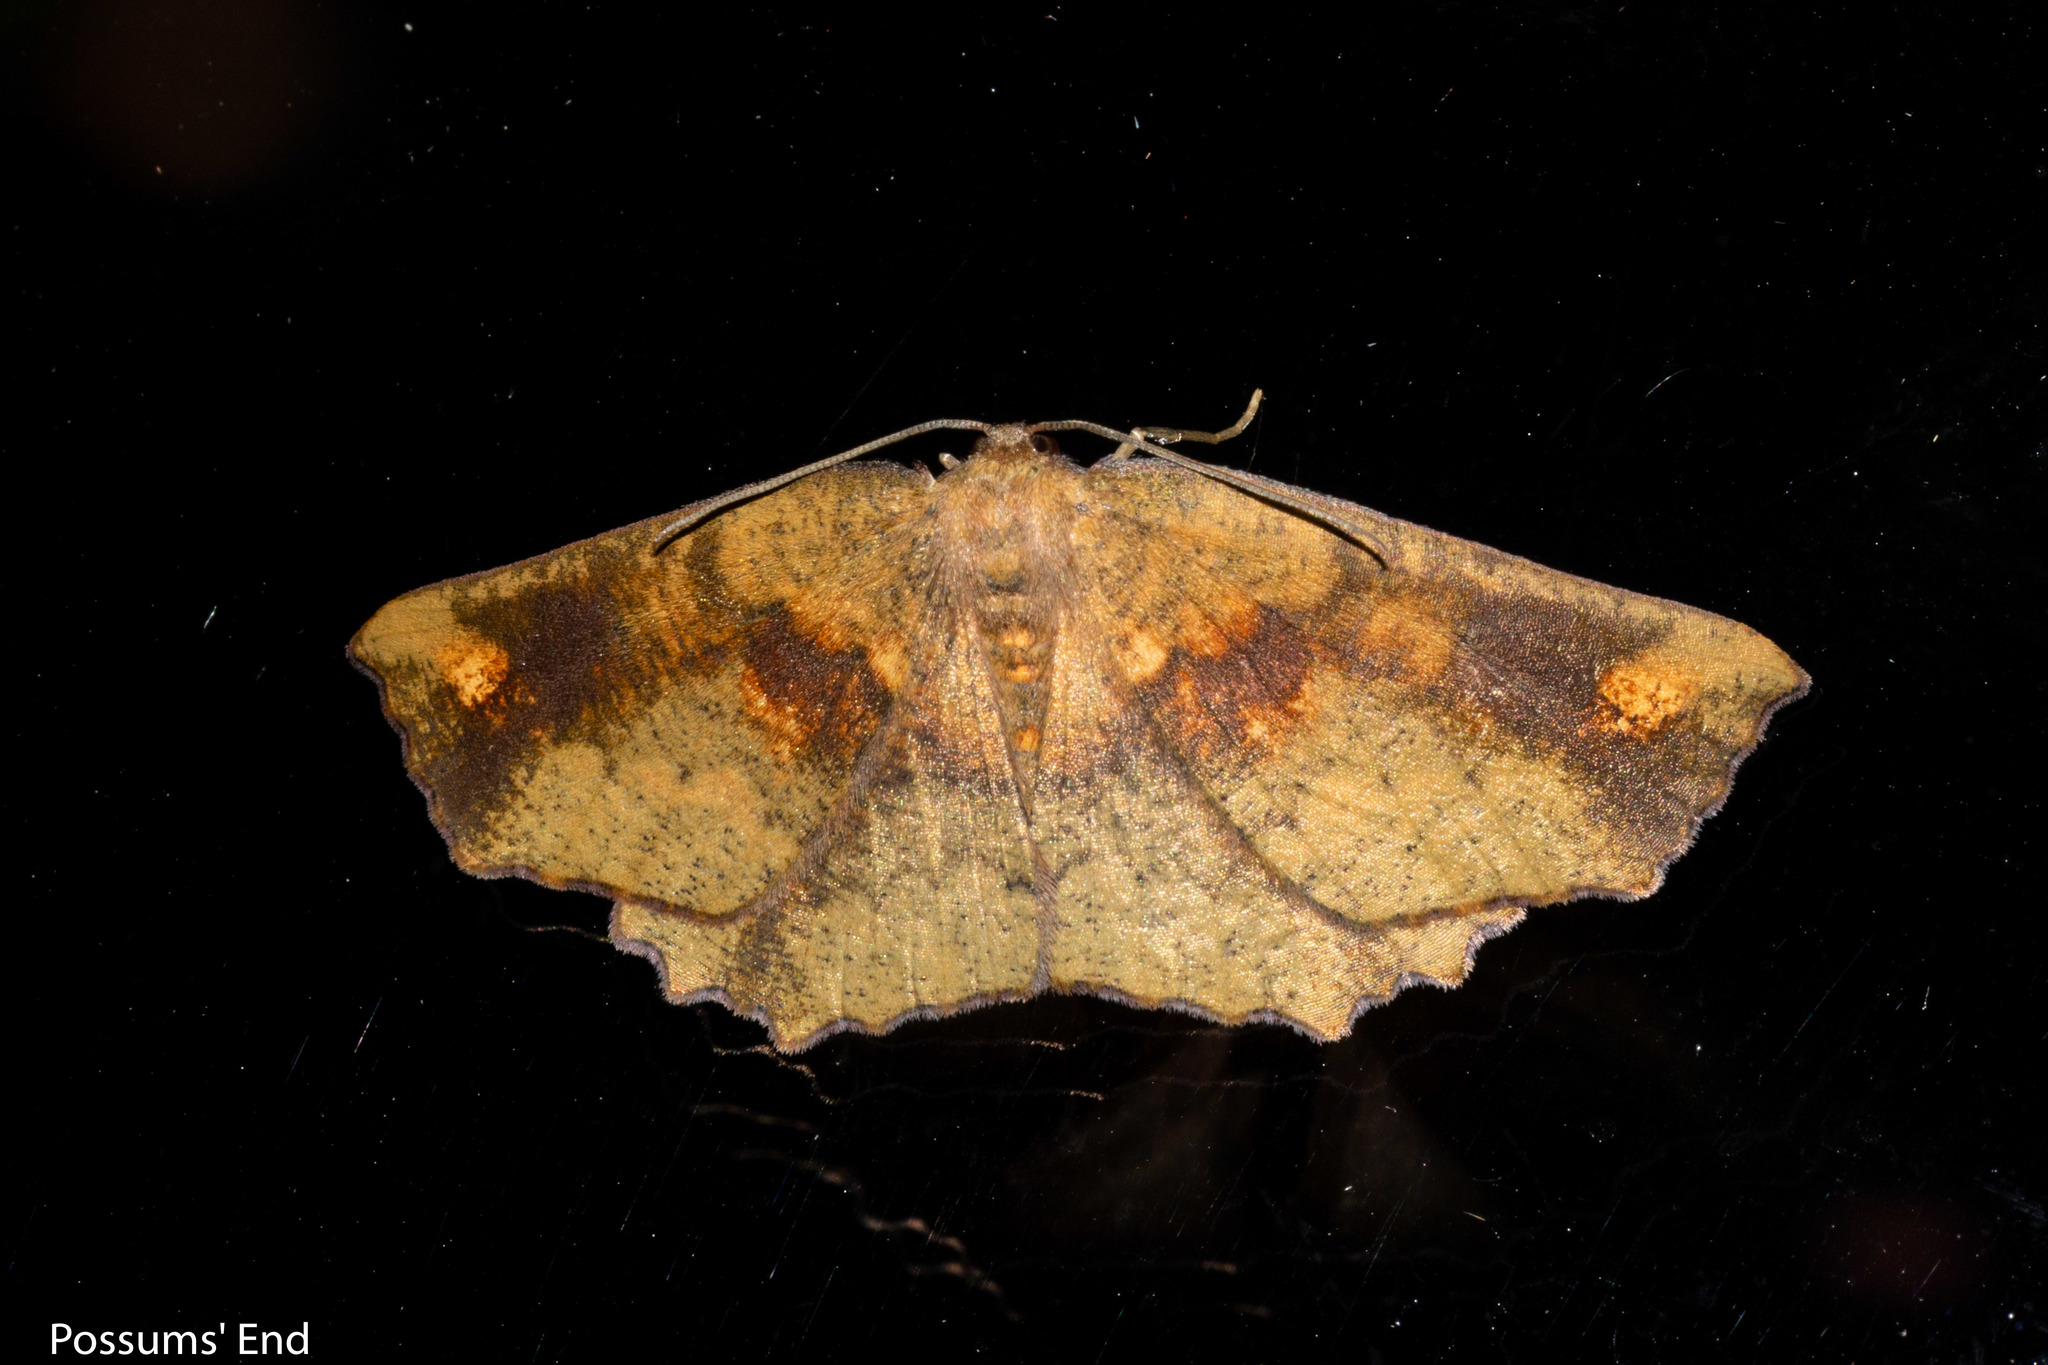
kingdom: Animalia
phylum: Arthropoda
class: Insecta
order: Lepidoptera
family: Geometridae
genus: Xyridacma
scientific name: Xyridacma ustaria
